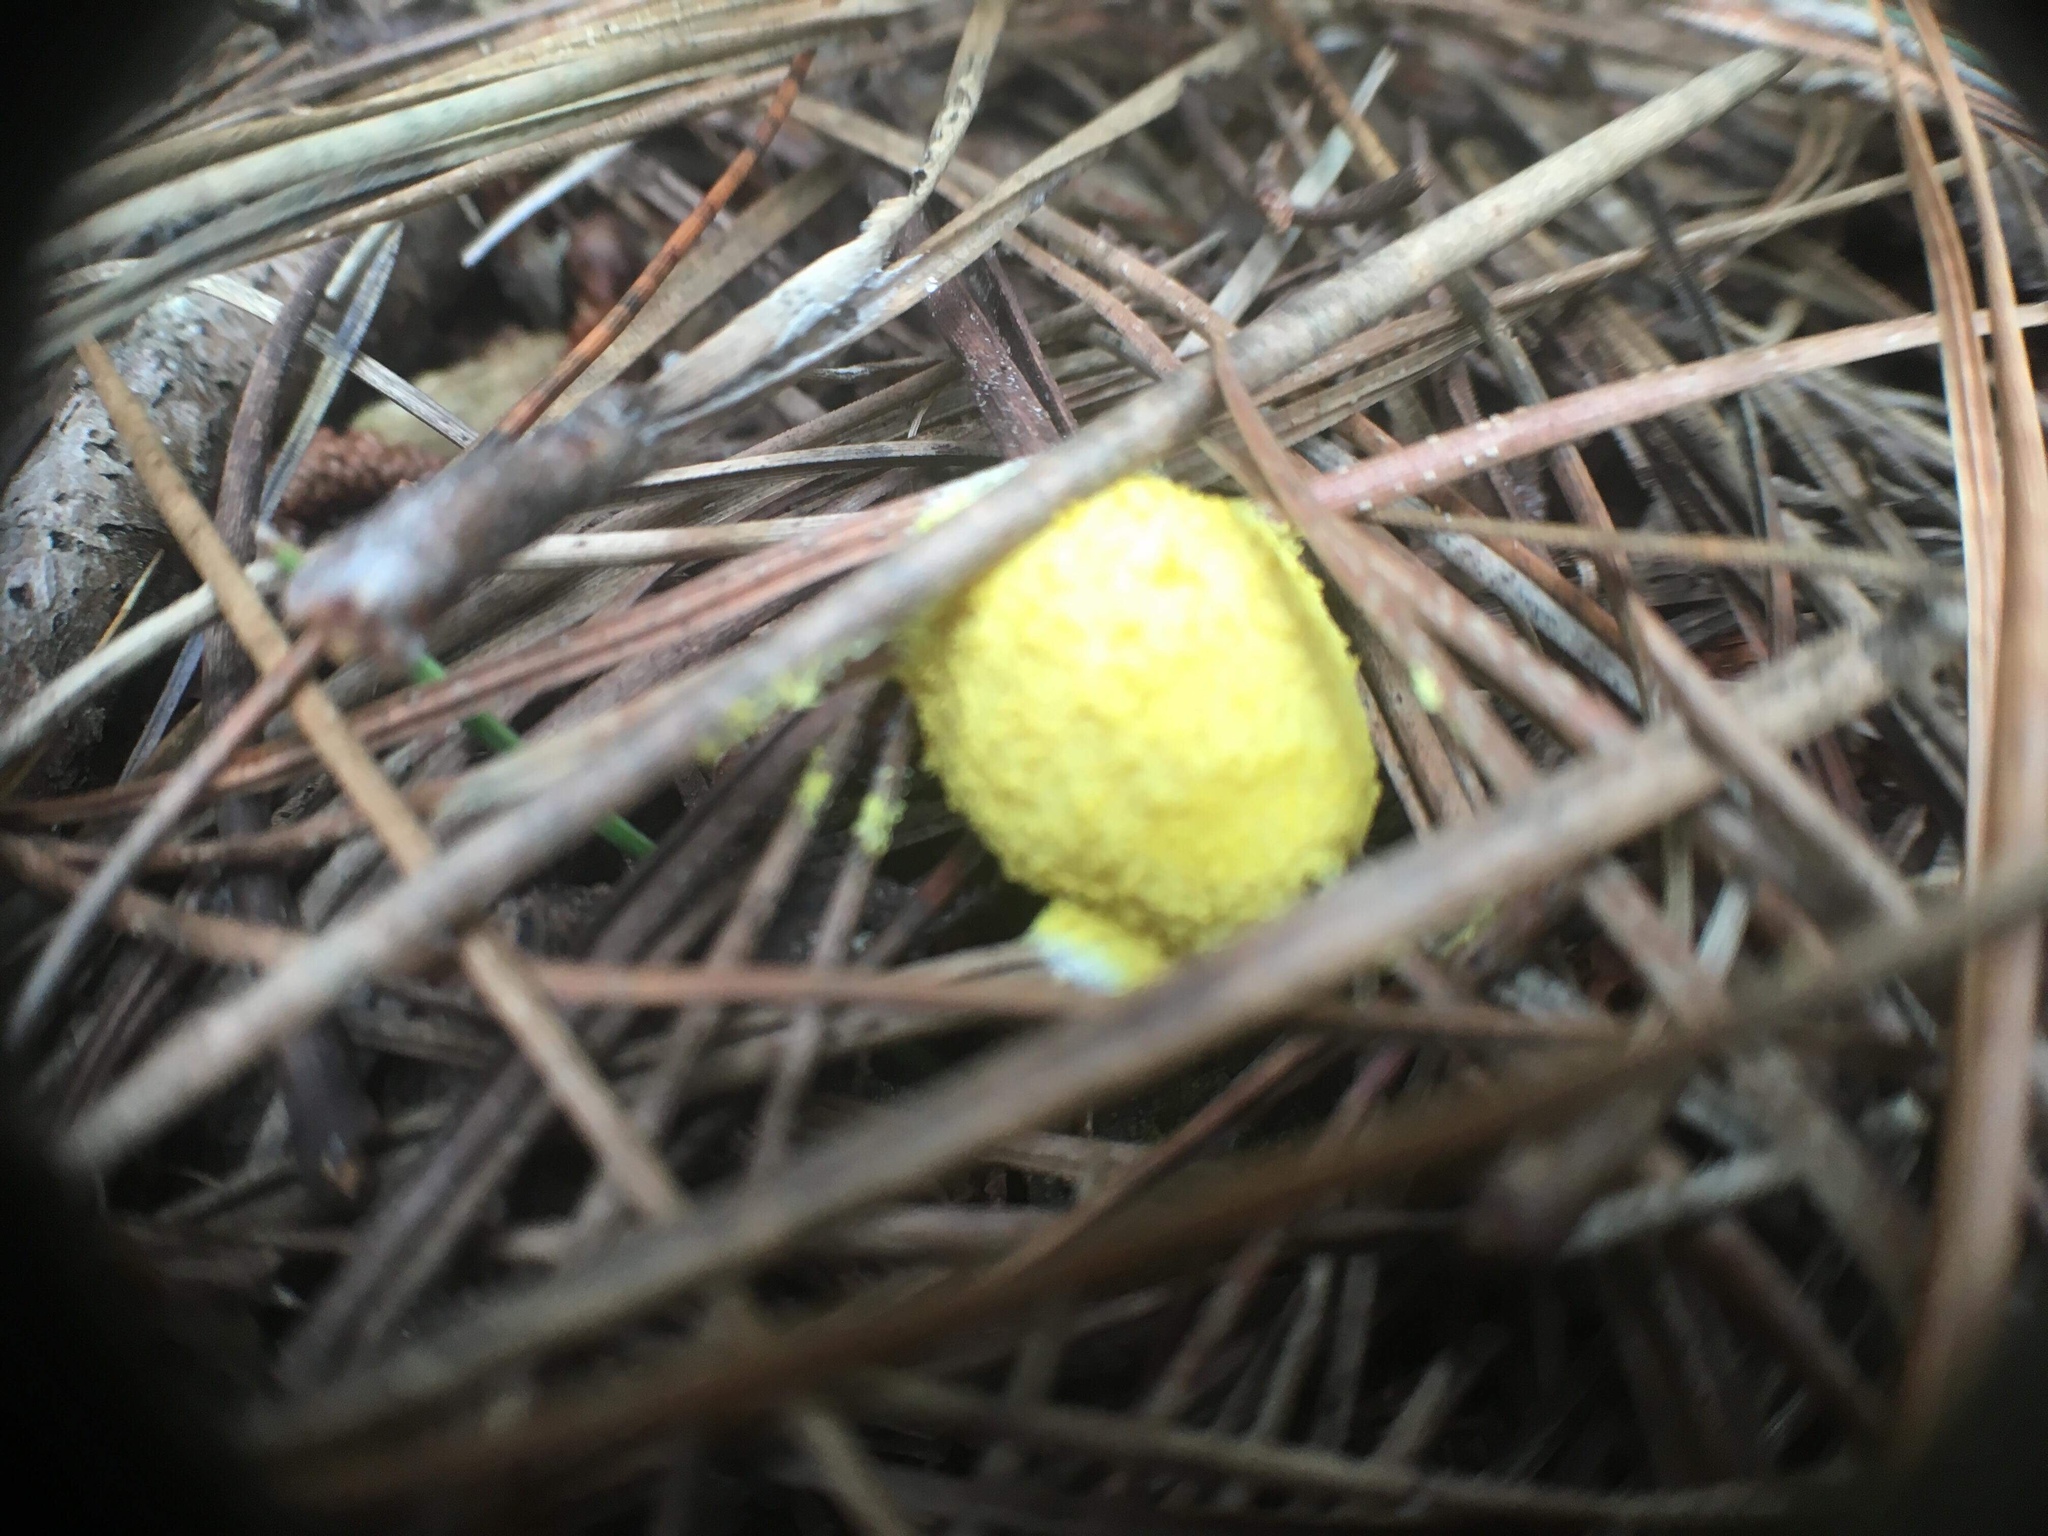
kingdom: Protozoa
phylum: Mycetozoa
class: Myxomycetes
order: Physarales
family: Physaraceae
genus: Fuligo
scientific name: Fuligo septica
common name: Dog vomit slime mold
